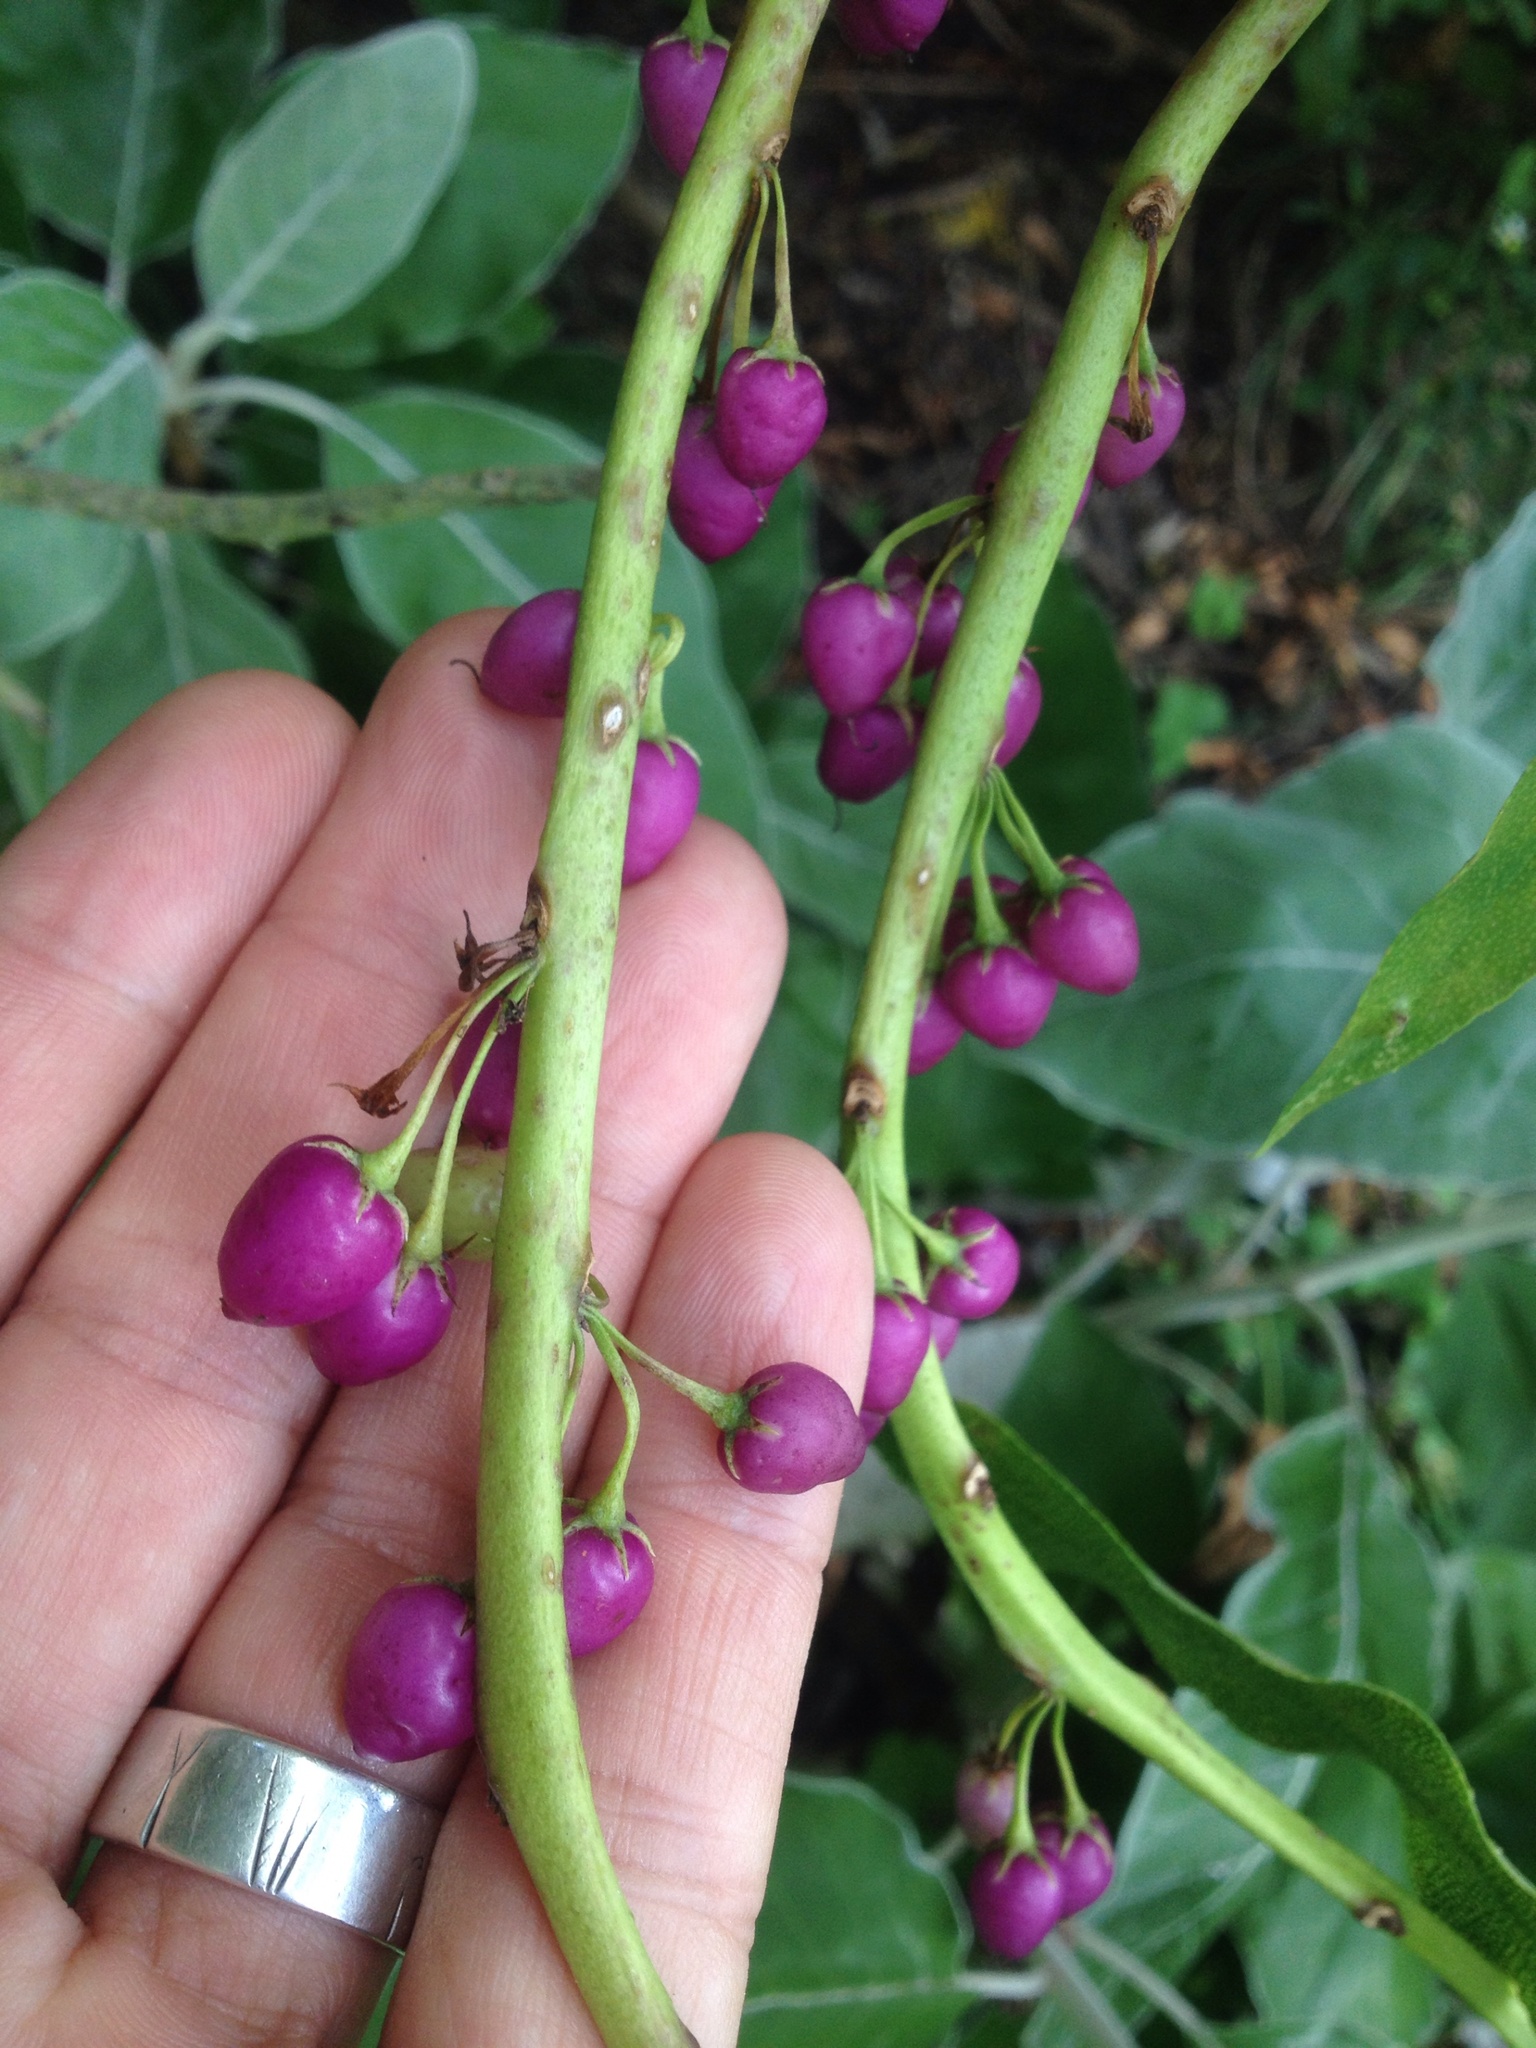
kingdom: Plantae
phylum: Tracheophyta
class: Magnoliopsida
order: Lamiales
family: Scrophulariaceae
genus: Myoporum
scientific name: Myoporum laetum
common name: Ngaio tree
